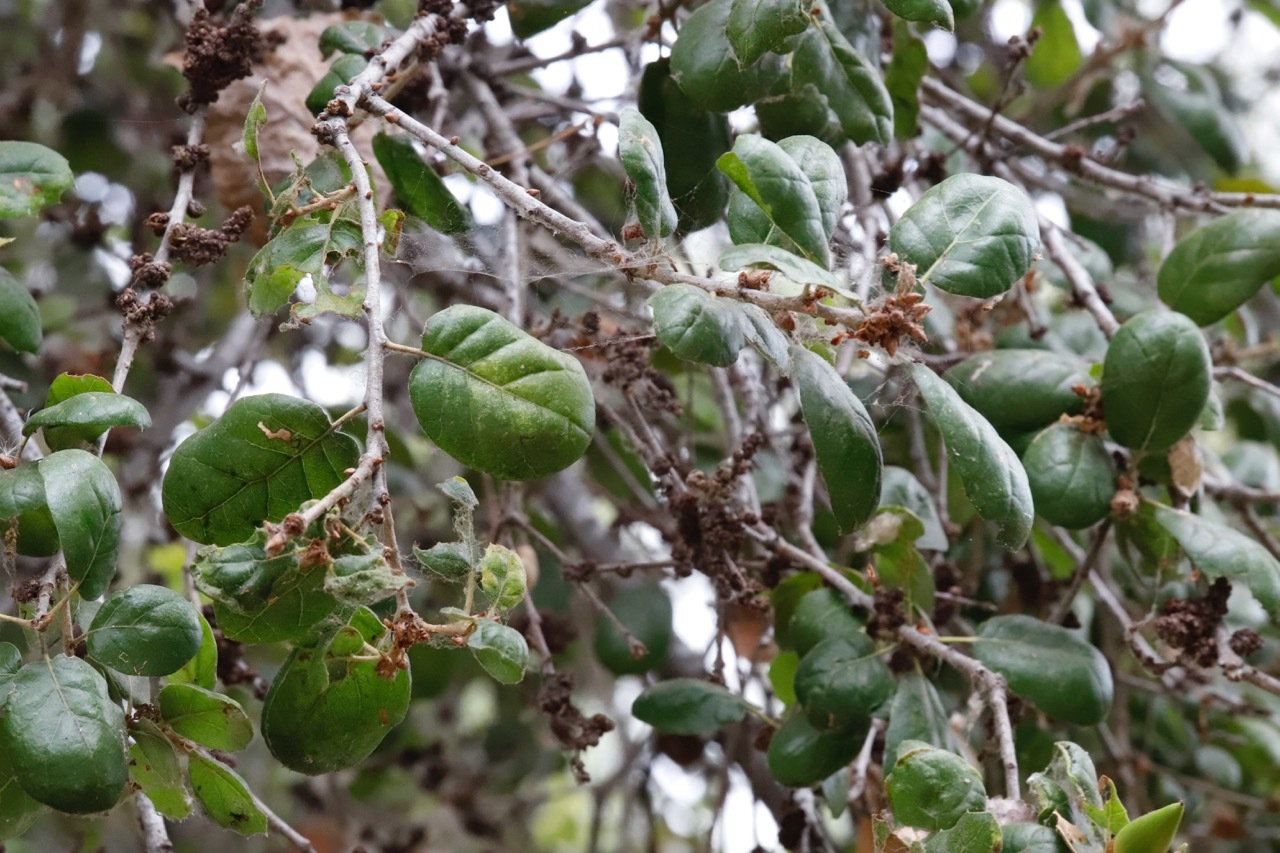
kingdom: Plantae
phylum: Tracheophyta
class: Magnoliopsida
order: Fagales
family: Fagaceae
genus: Quercus
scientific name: Quercus agrifolia
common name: California live oak
